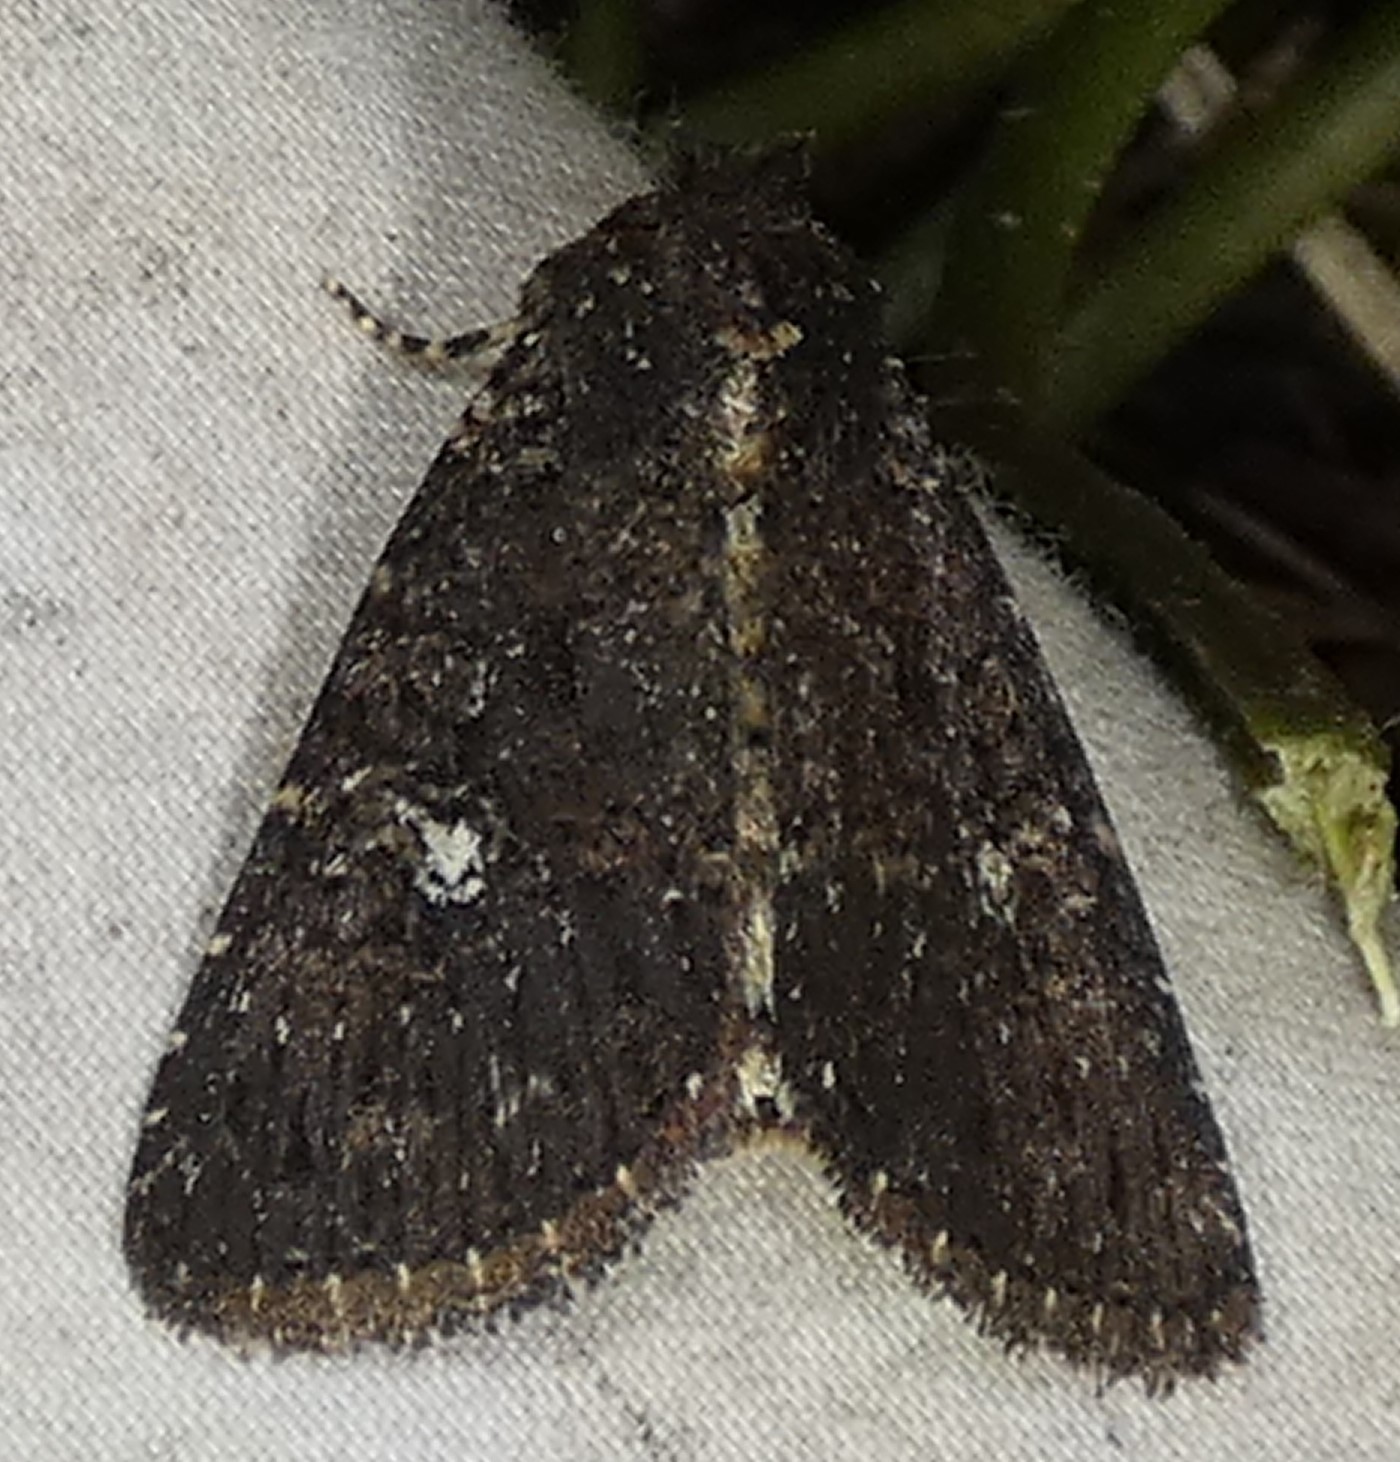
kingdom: Animalia
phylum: Arthropoda
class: Insecta
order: Lepidoptera
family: Noctuidae
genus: Condica
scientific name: Condica vecors
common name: Dusky groundling
